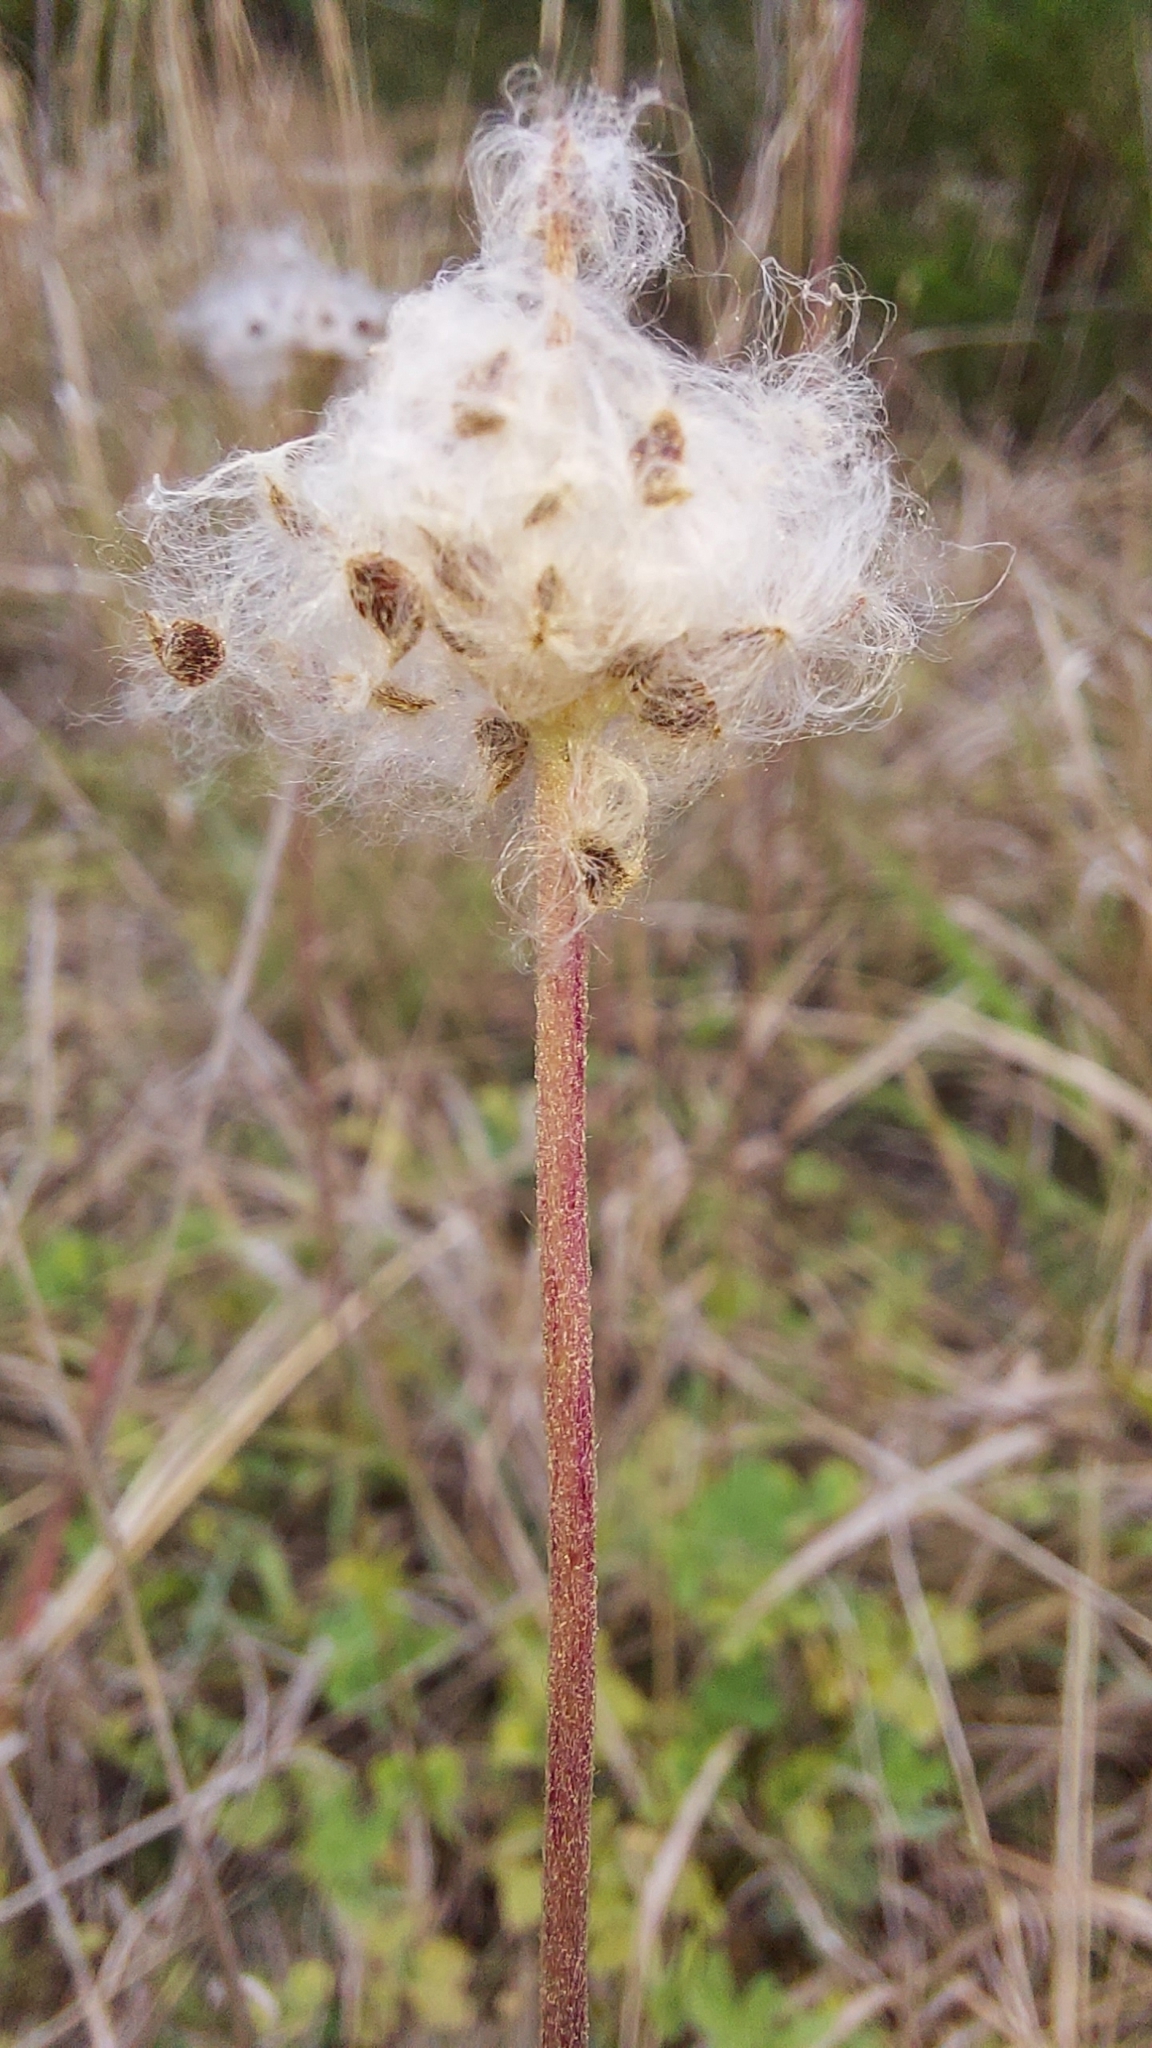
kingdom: Plantae
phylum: Tracheophyta
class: Magnoliopsida
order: Ranunculales
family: Ranunculaceae
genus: Anemone
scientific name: Anemone berlandieri
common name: Ten-petal anemone
